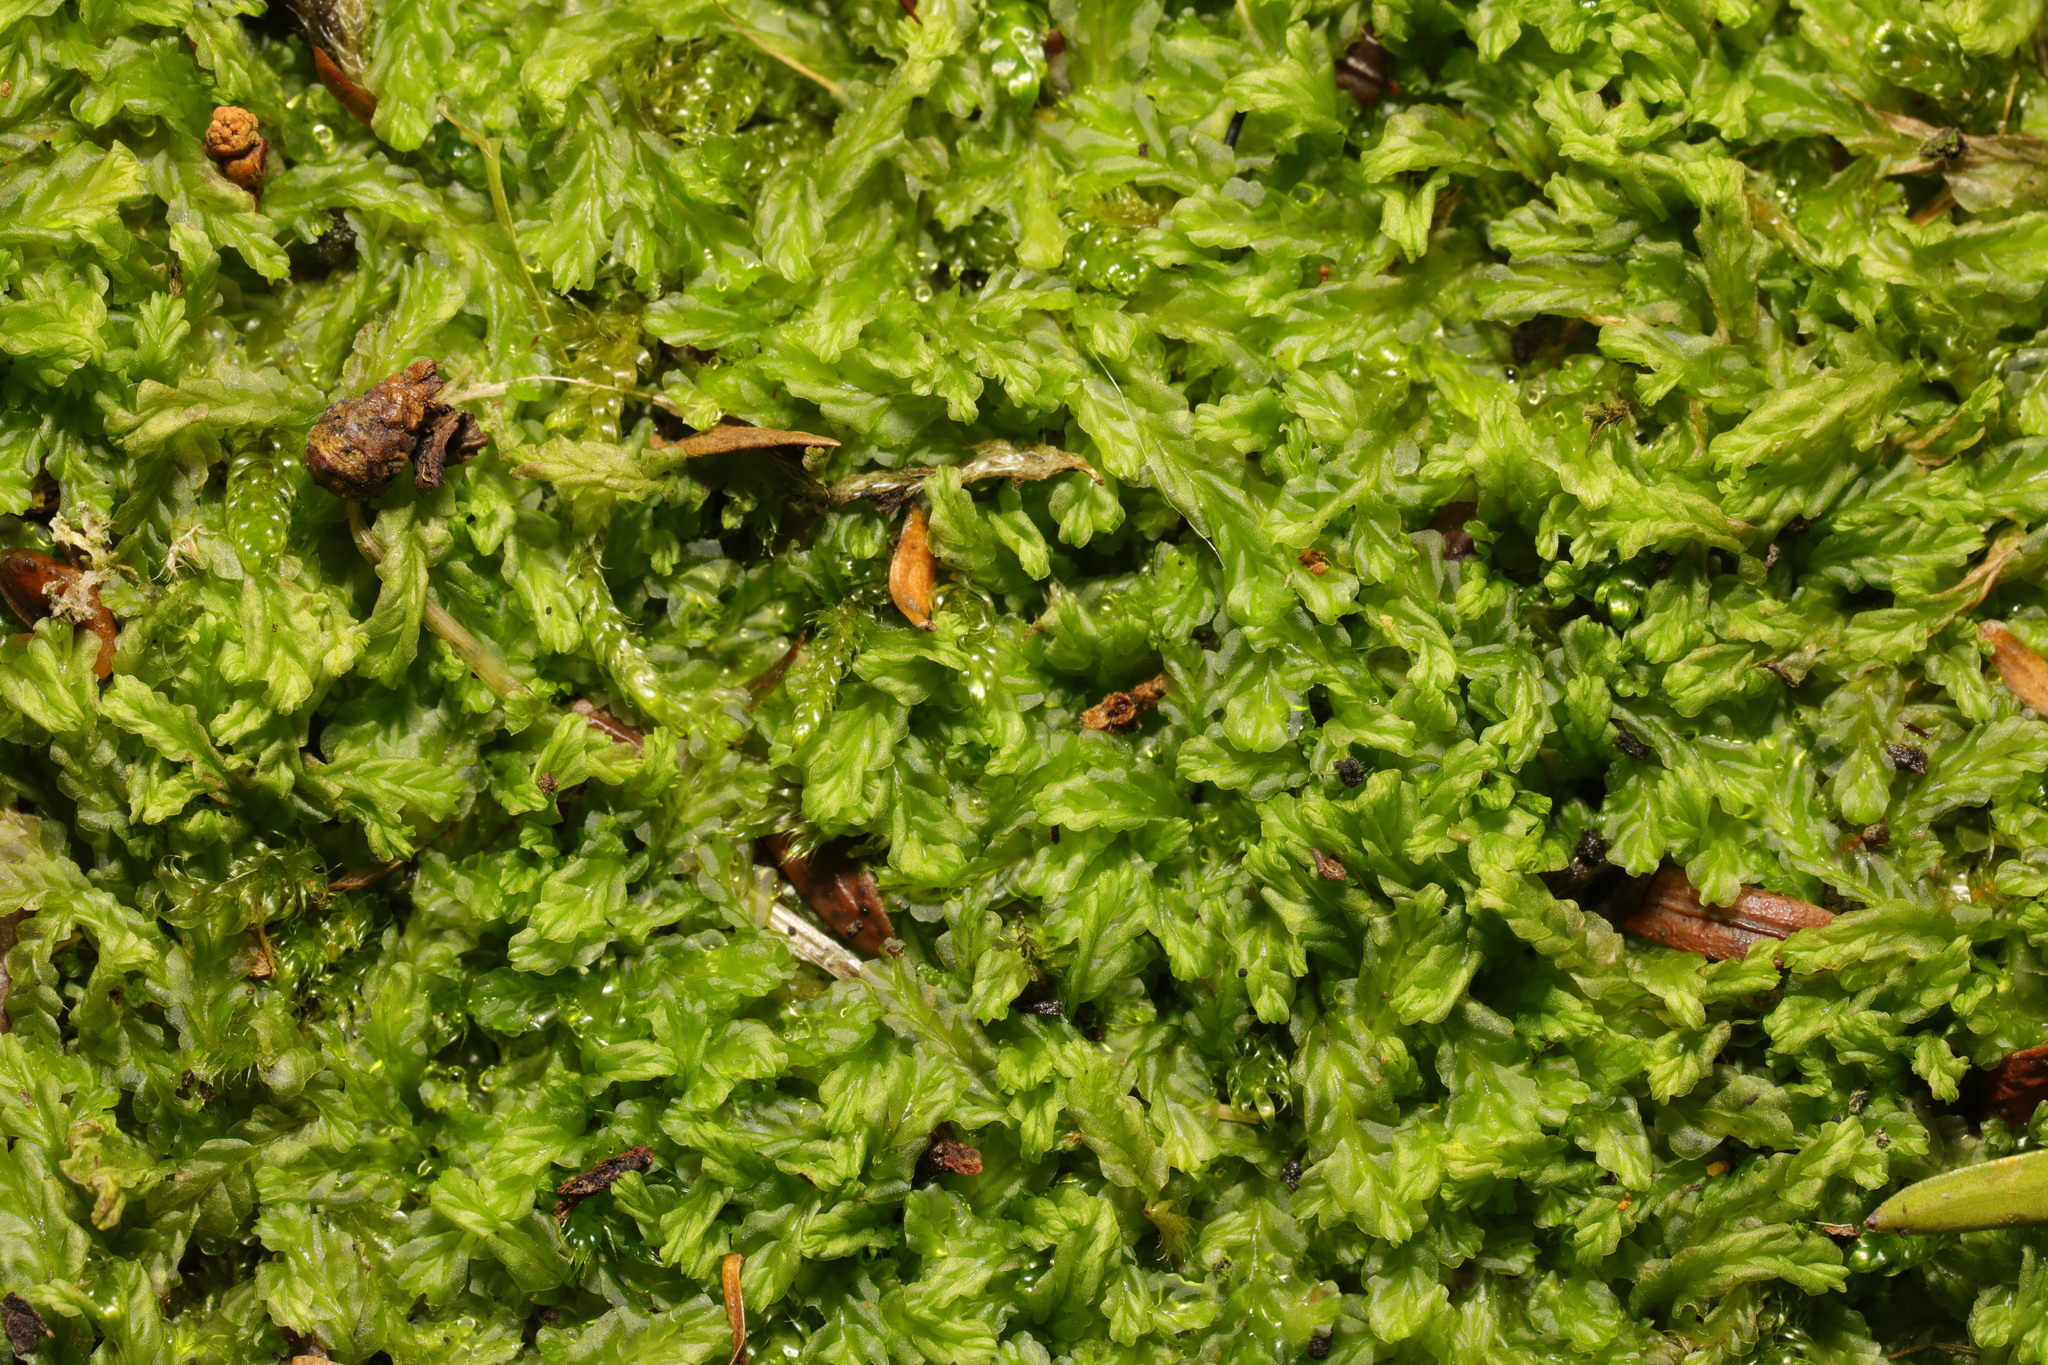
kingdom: Plantae
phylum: Marchantiophyta
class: Jungermanniopsida
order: Jungermanniales
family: Lophocoleaceae
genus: Lophocolea
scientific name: Lophocolea semiteres
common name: Southern crestwort
